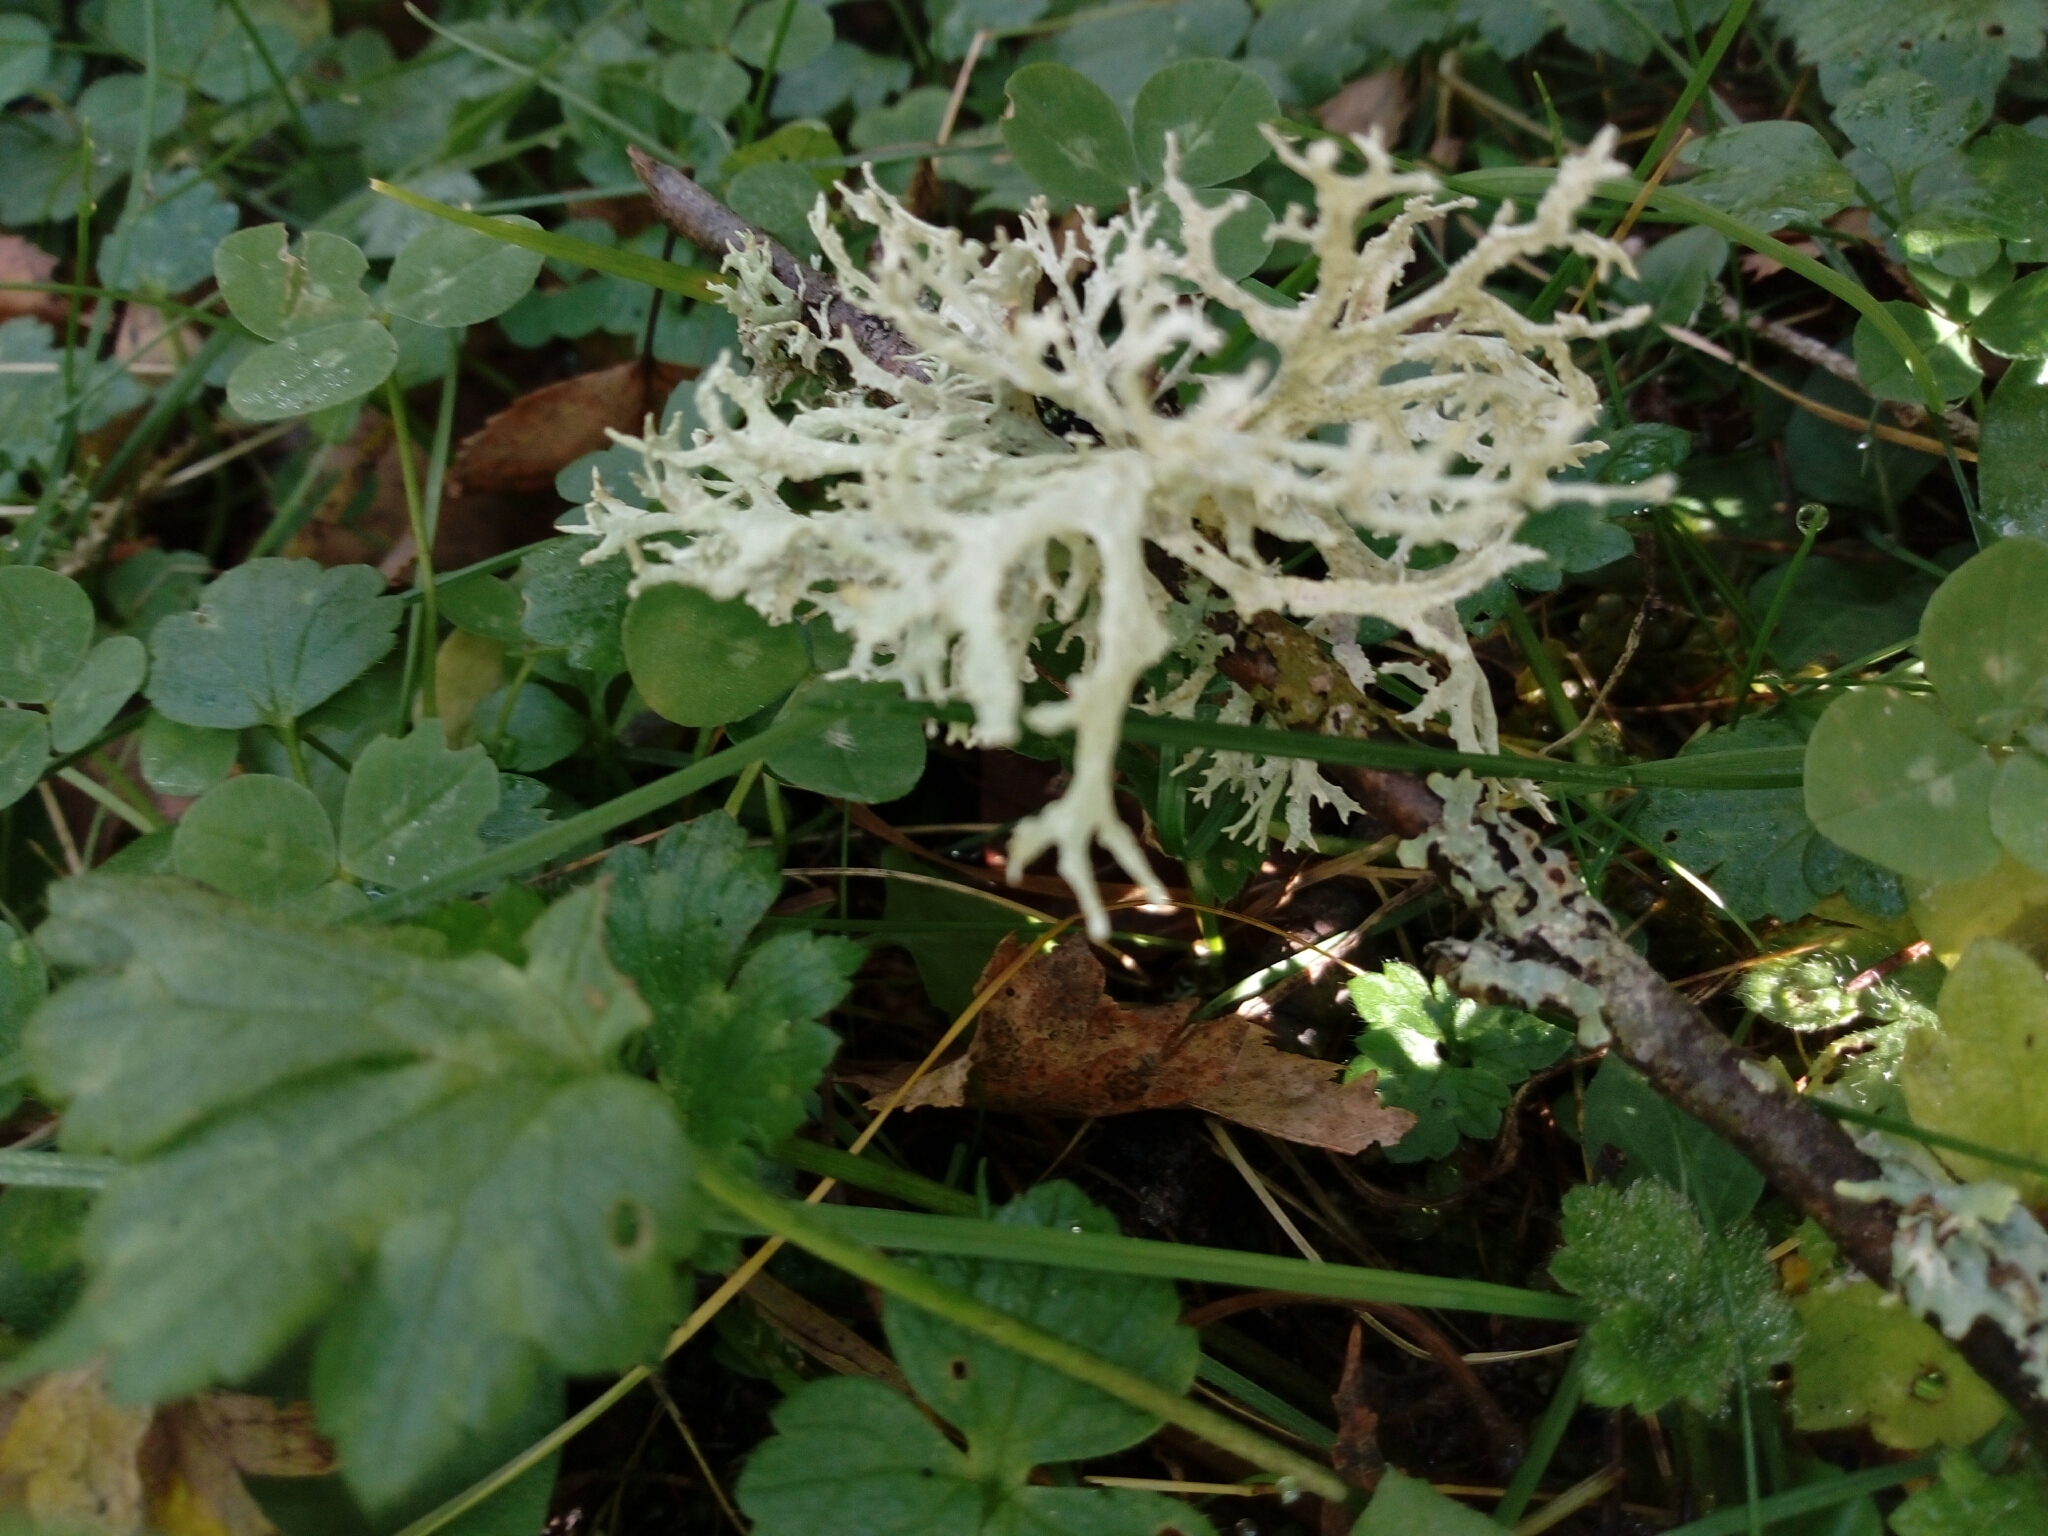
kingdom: Fungi
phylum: Ascomycota
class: Lecanoromycetes
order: Lecanorales
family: Parmeliaceae
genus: Evernia
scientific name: Evernia prunastri
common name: Oak moss
